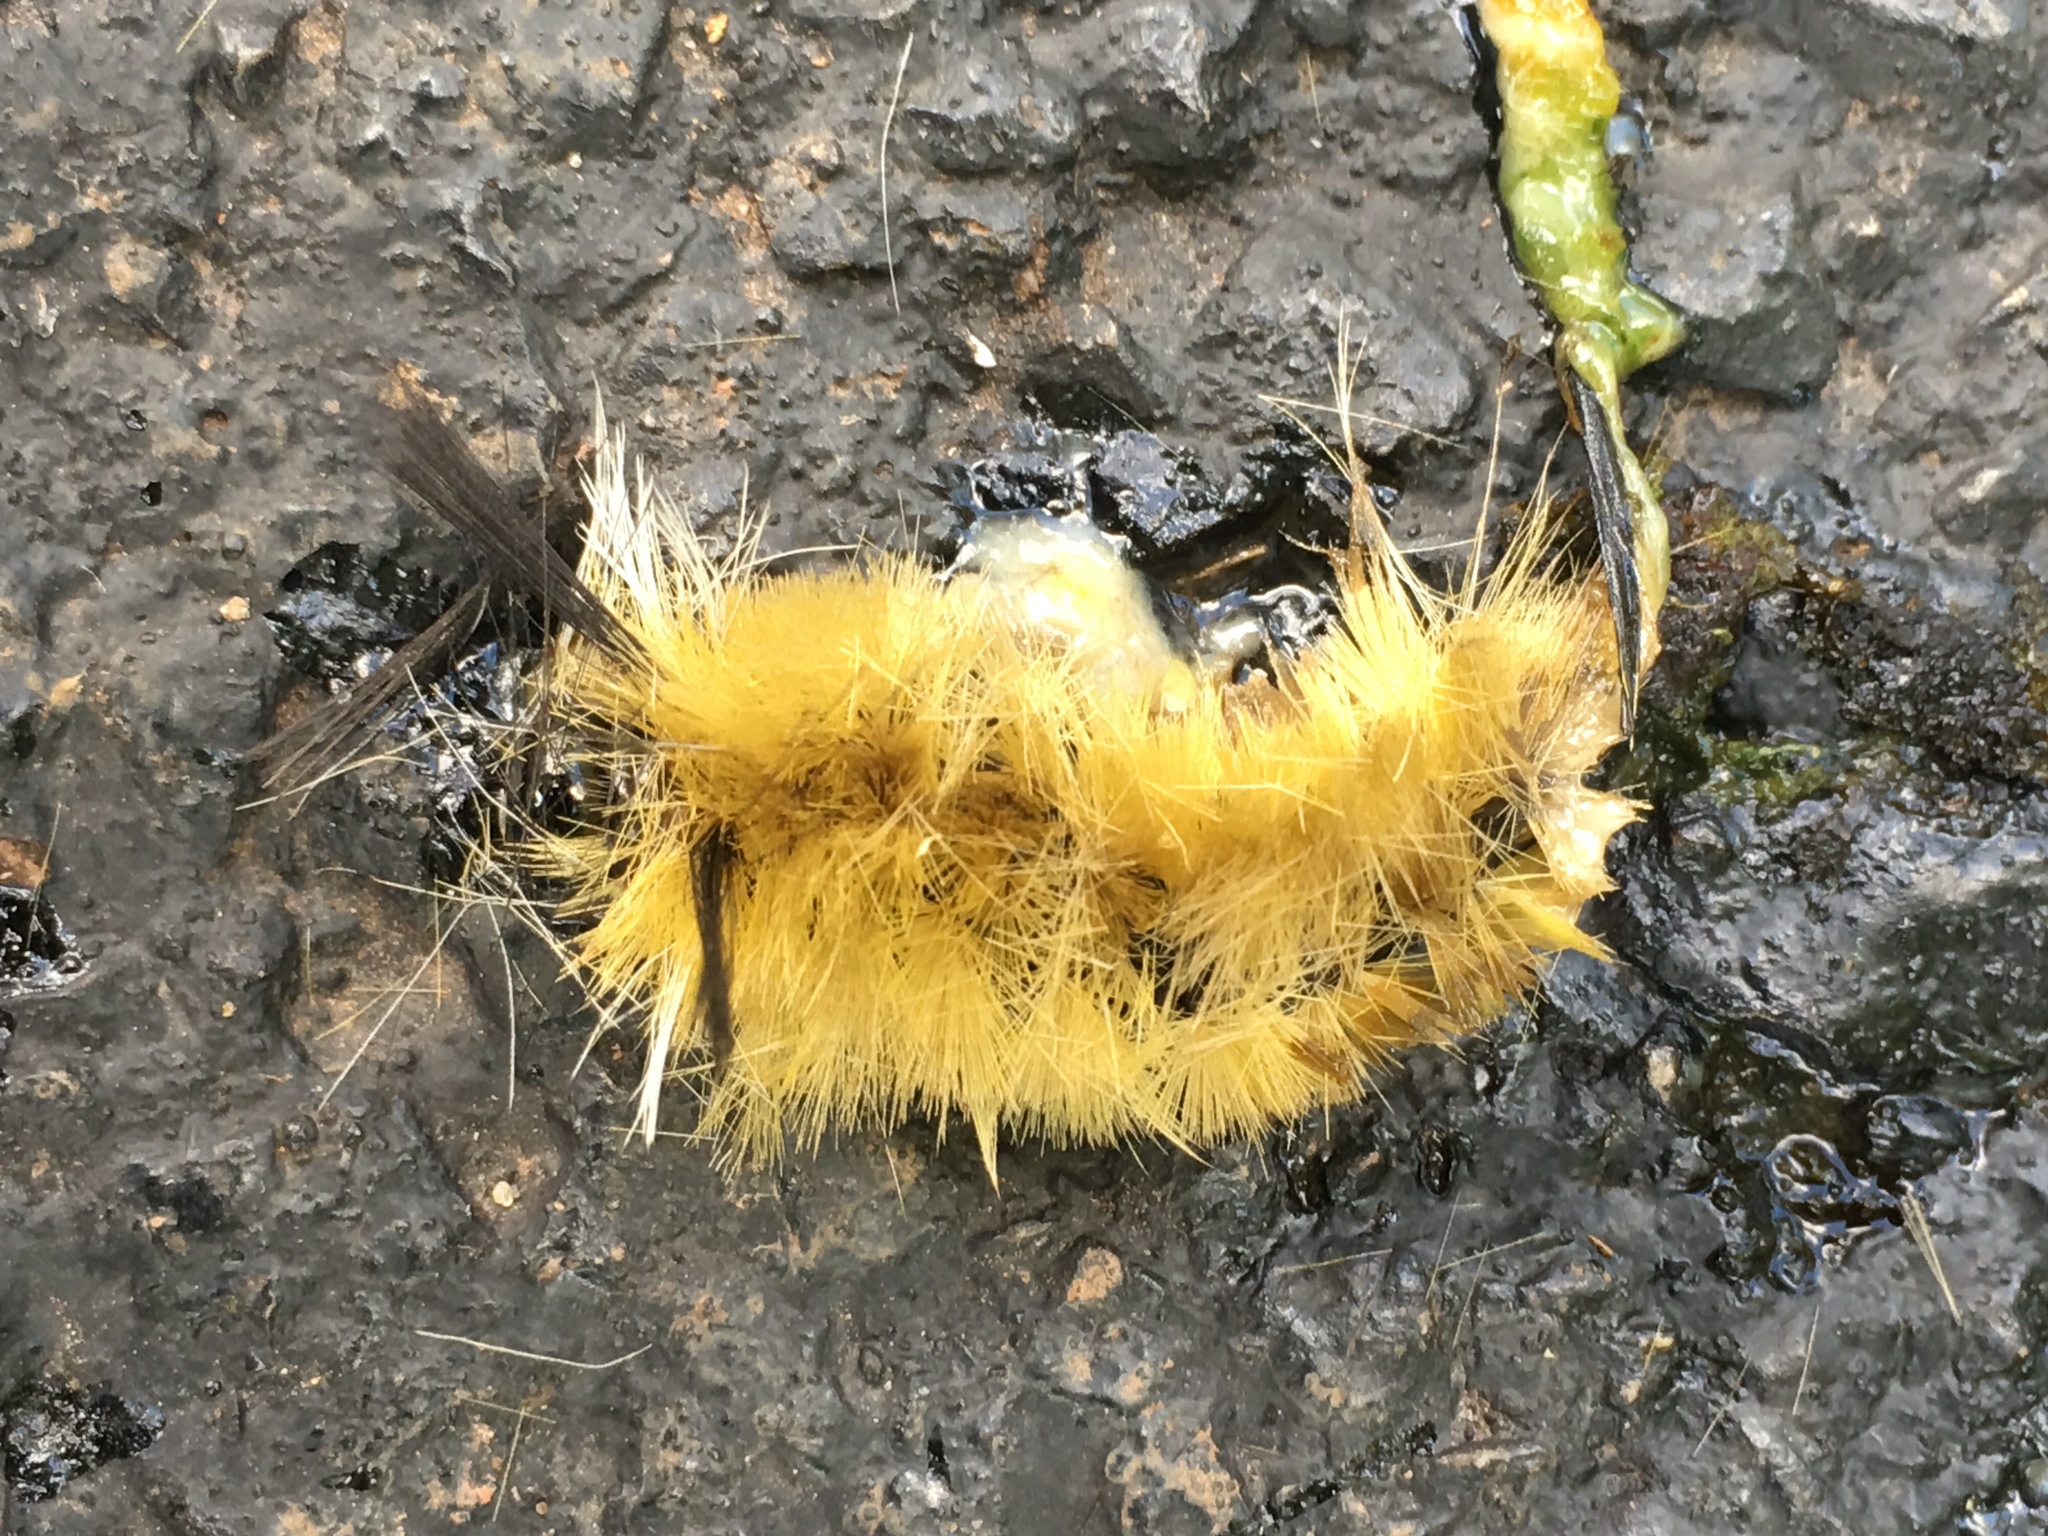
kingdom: Animalia
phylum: Arthropoda
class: Insecta
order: Lepidoptera
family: Erebidae
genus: Halysidota
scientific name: Halysidota tessellaris
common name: Banded tussock moth
